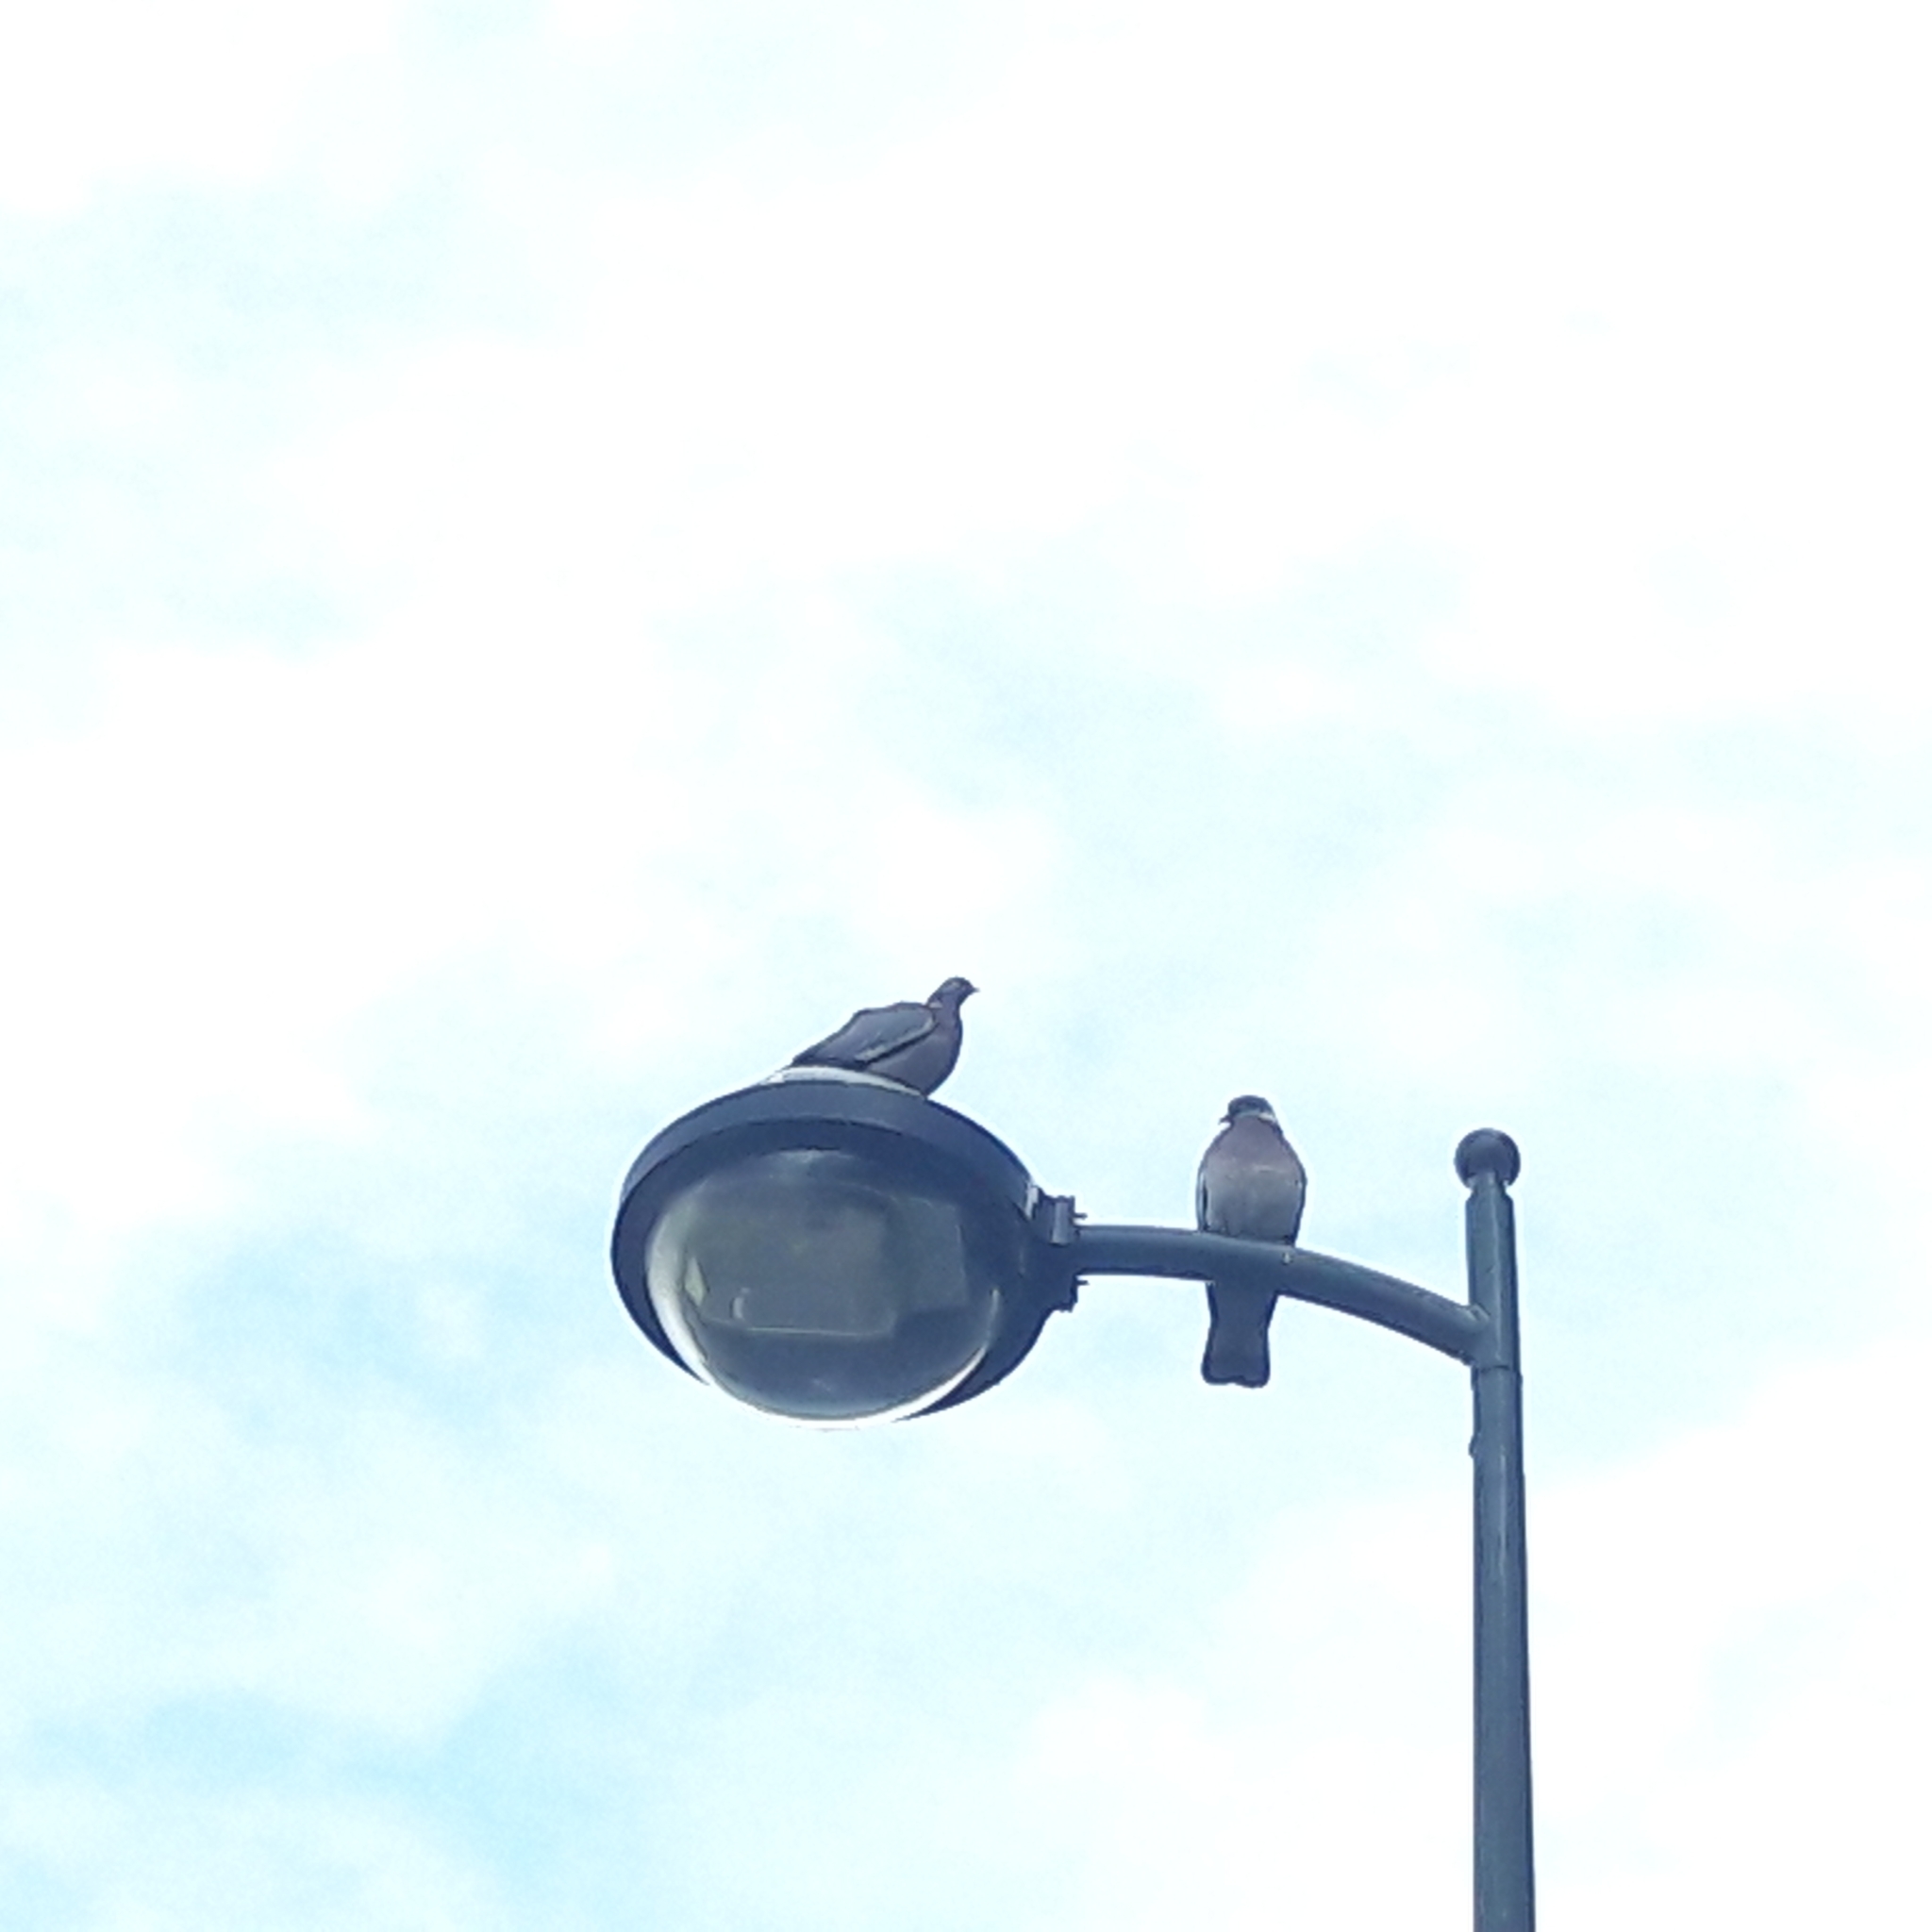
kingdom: Animalia
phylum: Chordata
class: Aves
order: Columbiformes
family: Columbidae
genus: Columba
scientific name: Columba palumbus
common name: Common wood pigeon
